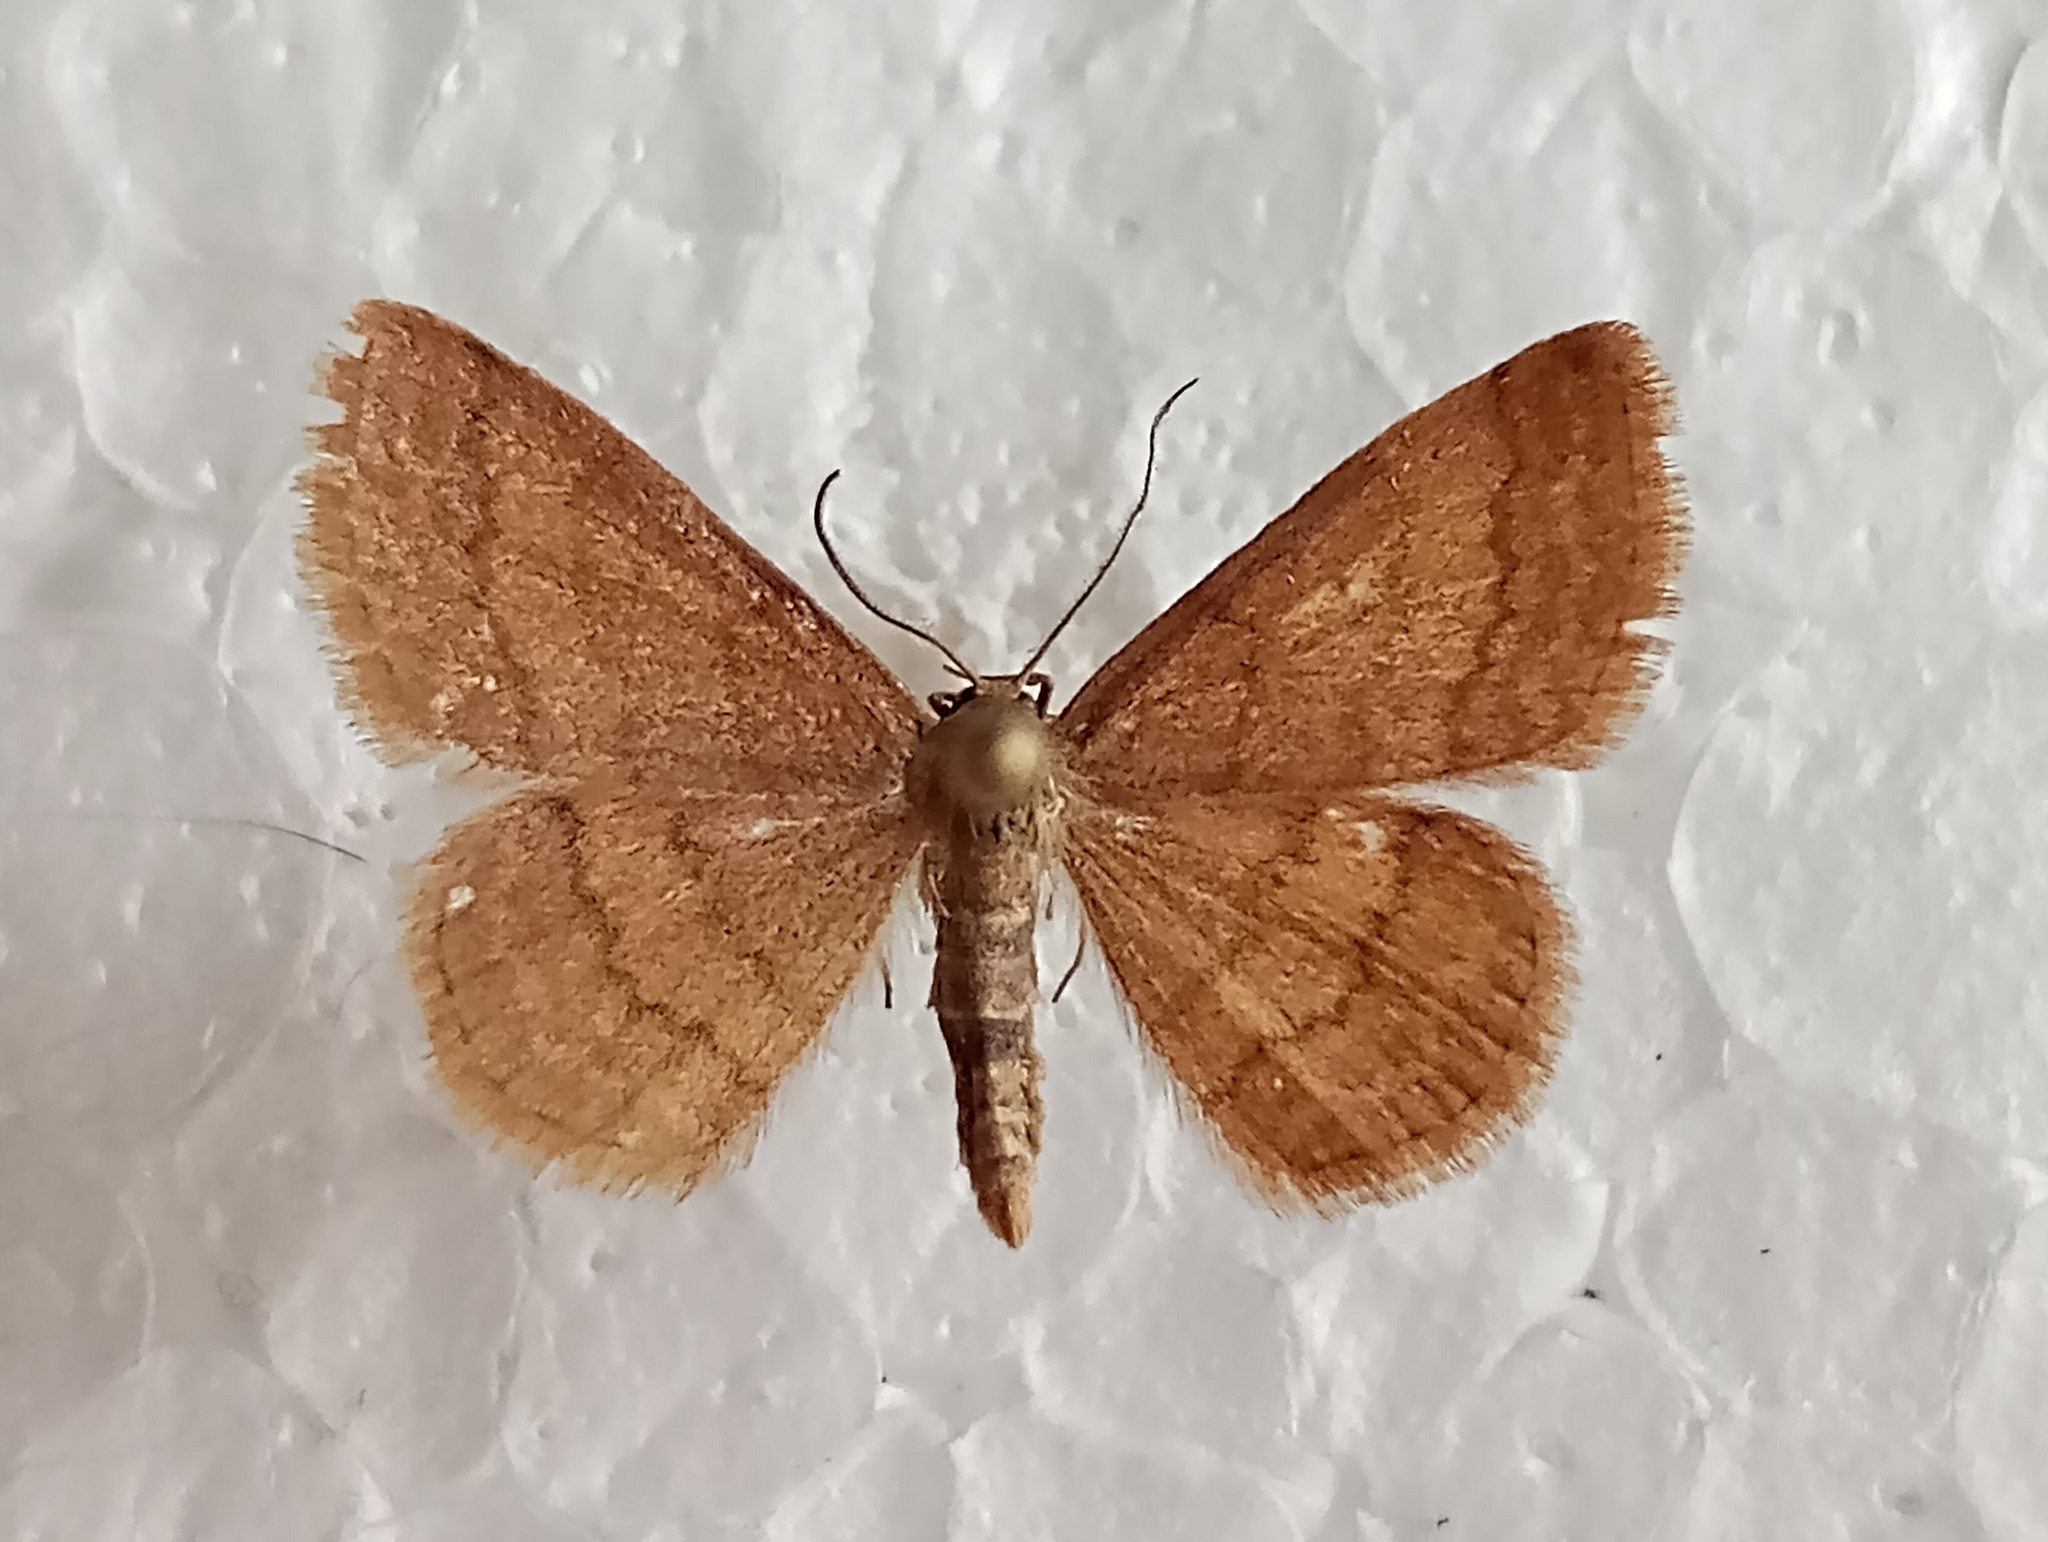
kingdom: Animalia
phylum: Arthropoda
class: Insecta
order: Lepidoptera
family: Geometridae
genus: Scopula
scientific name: Scopula rubiginata
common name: Tawny wave
